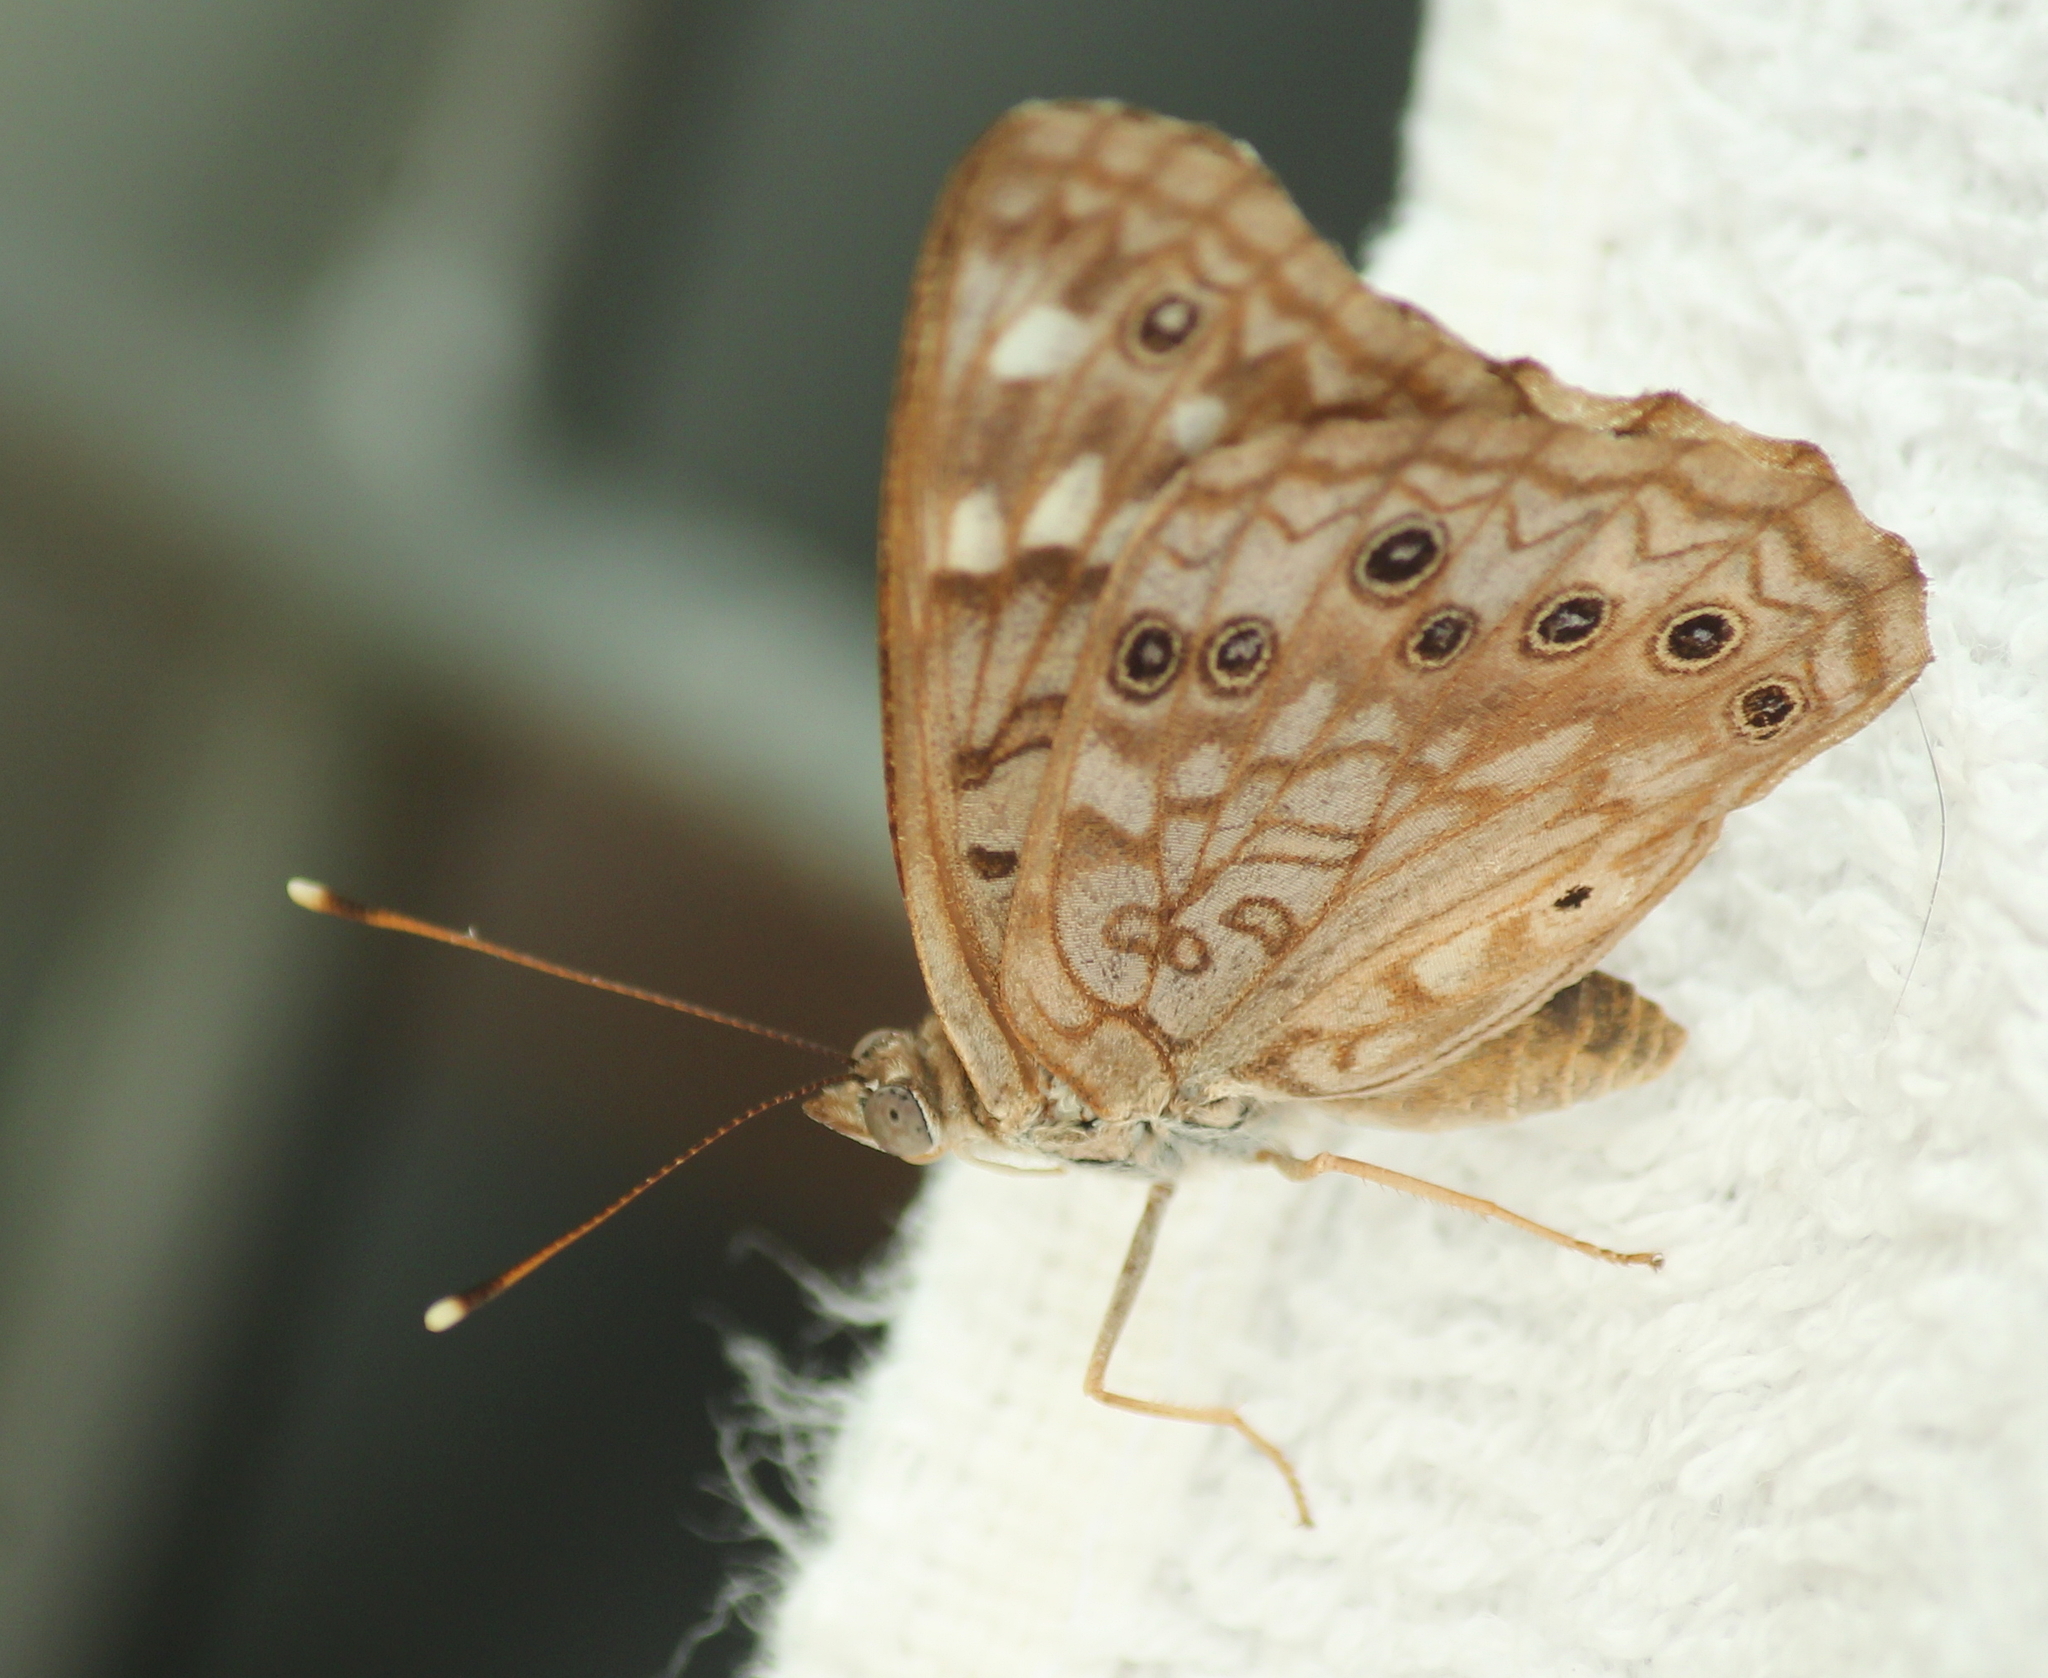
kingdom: Animalia
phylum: Arthropoda
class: Insecta
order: Lepidoptera
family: Nymphalidae
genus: Asterocampa
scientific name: Asterocampa celtis
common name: Hackberry emperor
